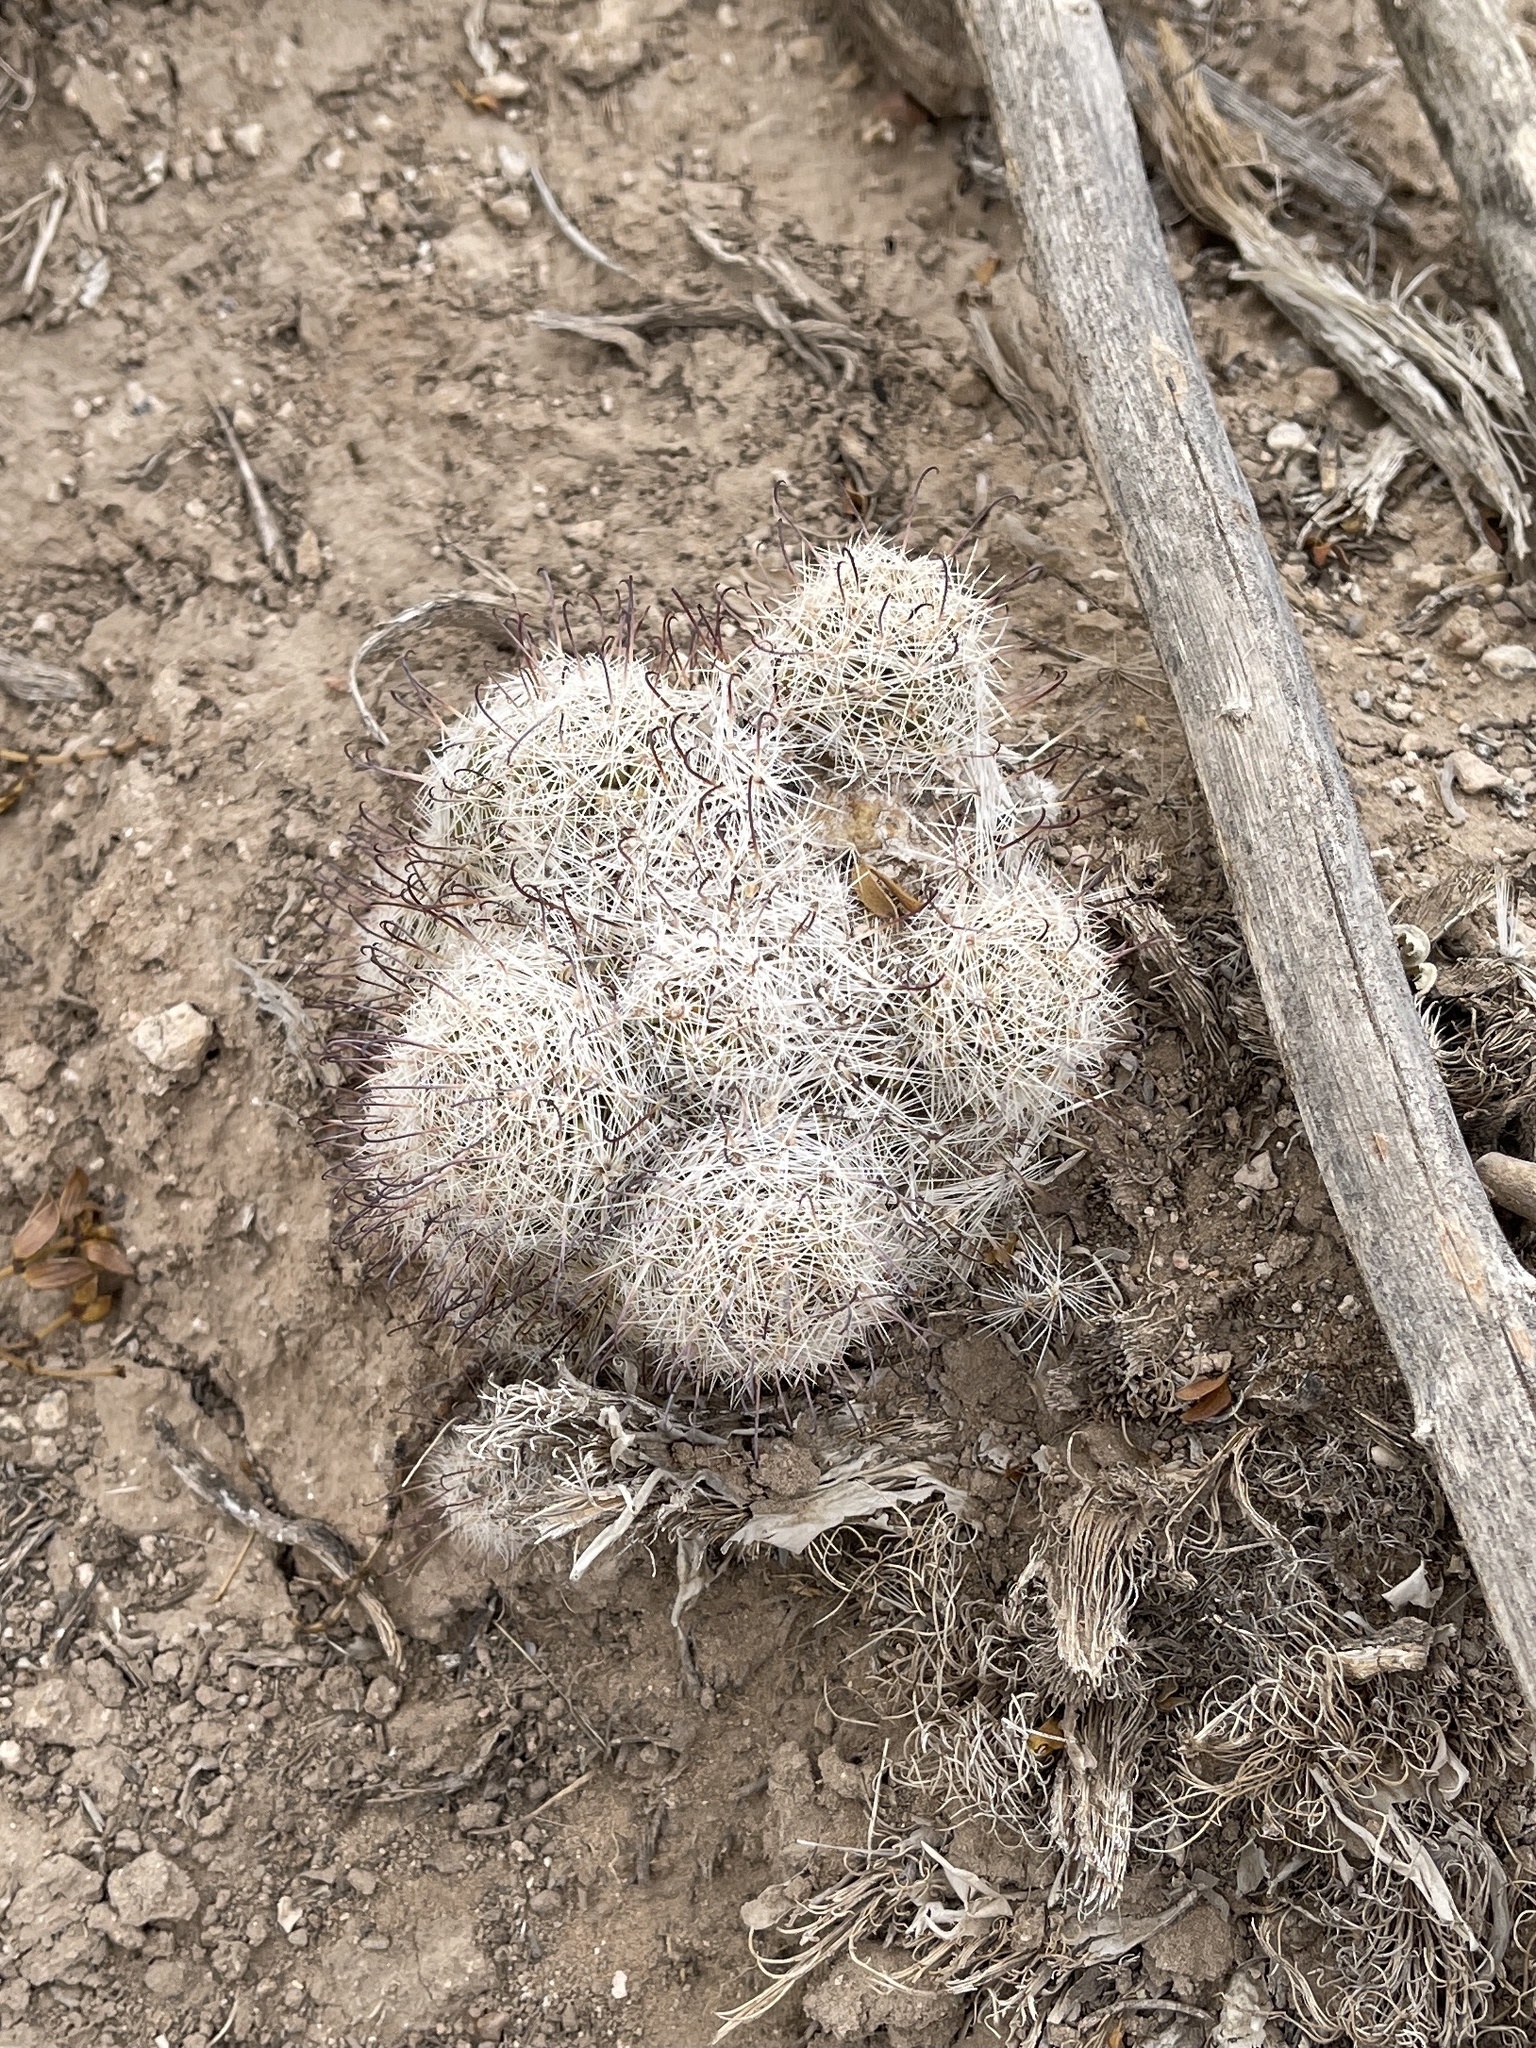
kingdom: Plantae
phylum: Tracheophyta
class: Magnoliopsida
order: Caryophyllales
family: Cactaceae
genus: Cochemiea
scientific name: Cochemiea grahamii
